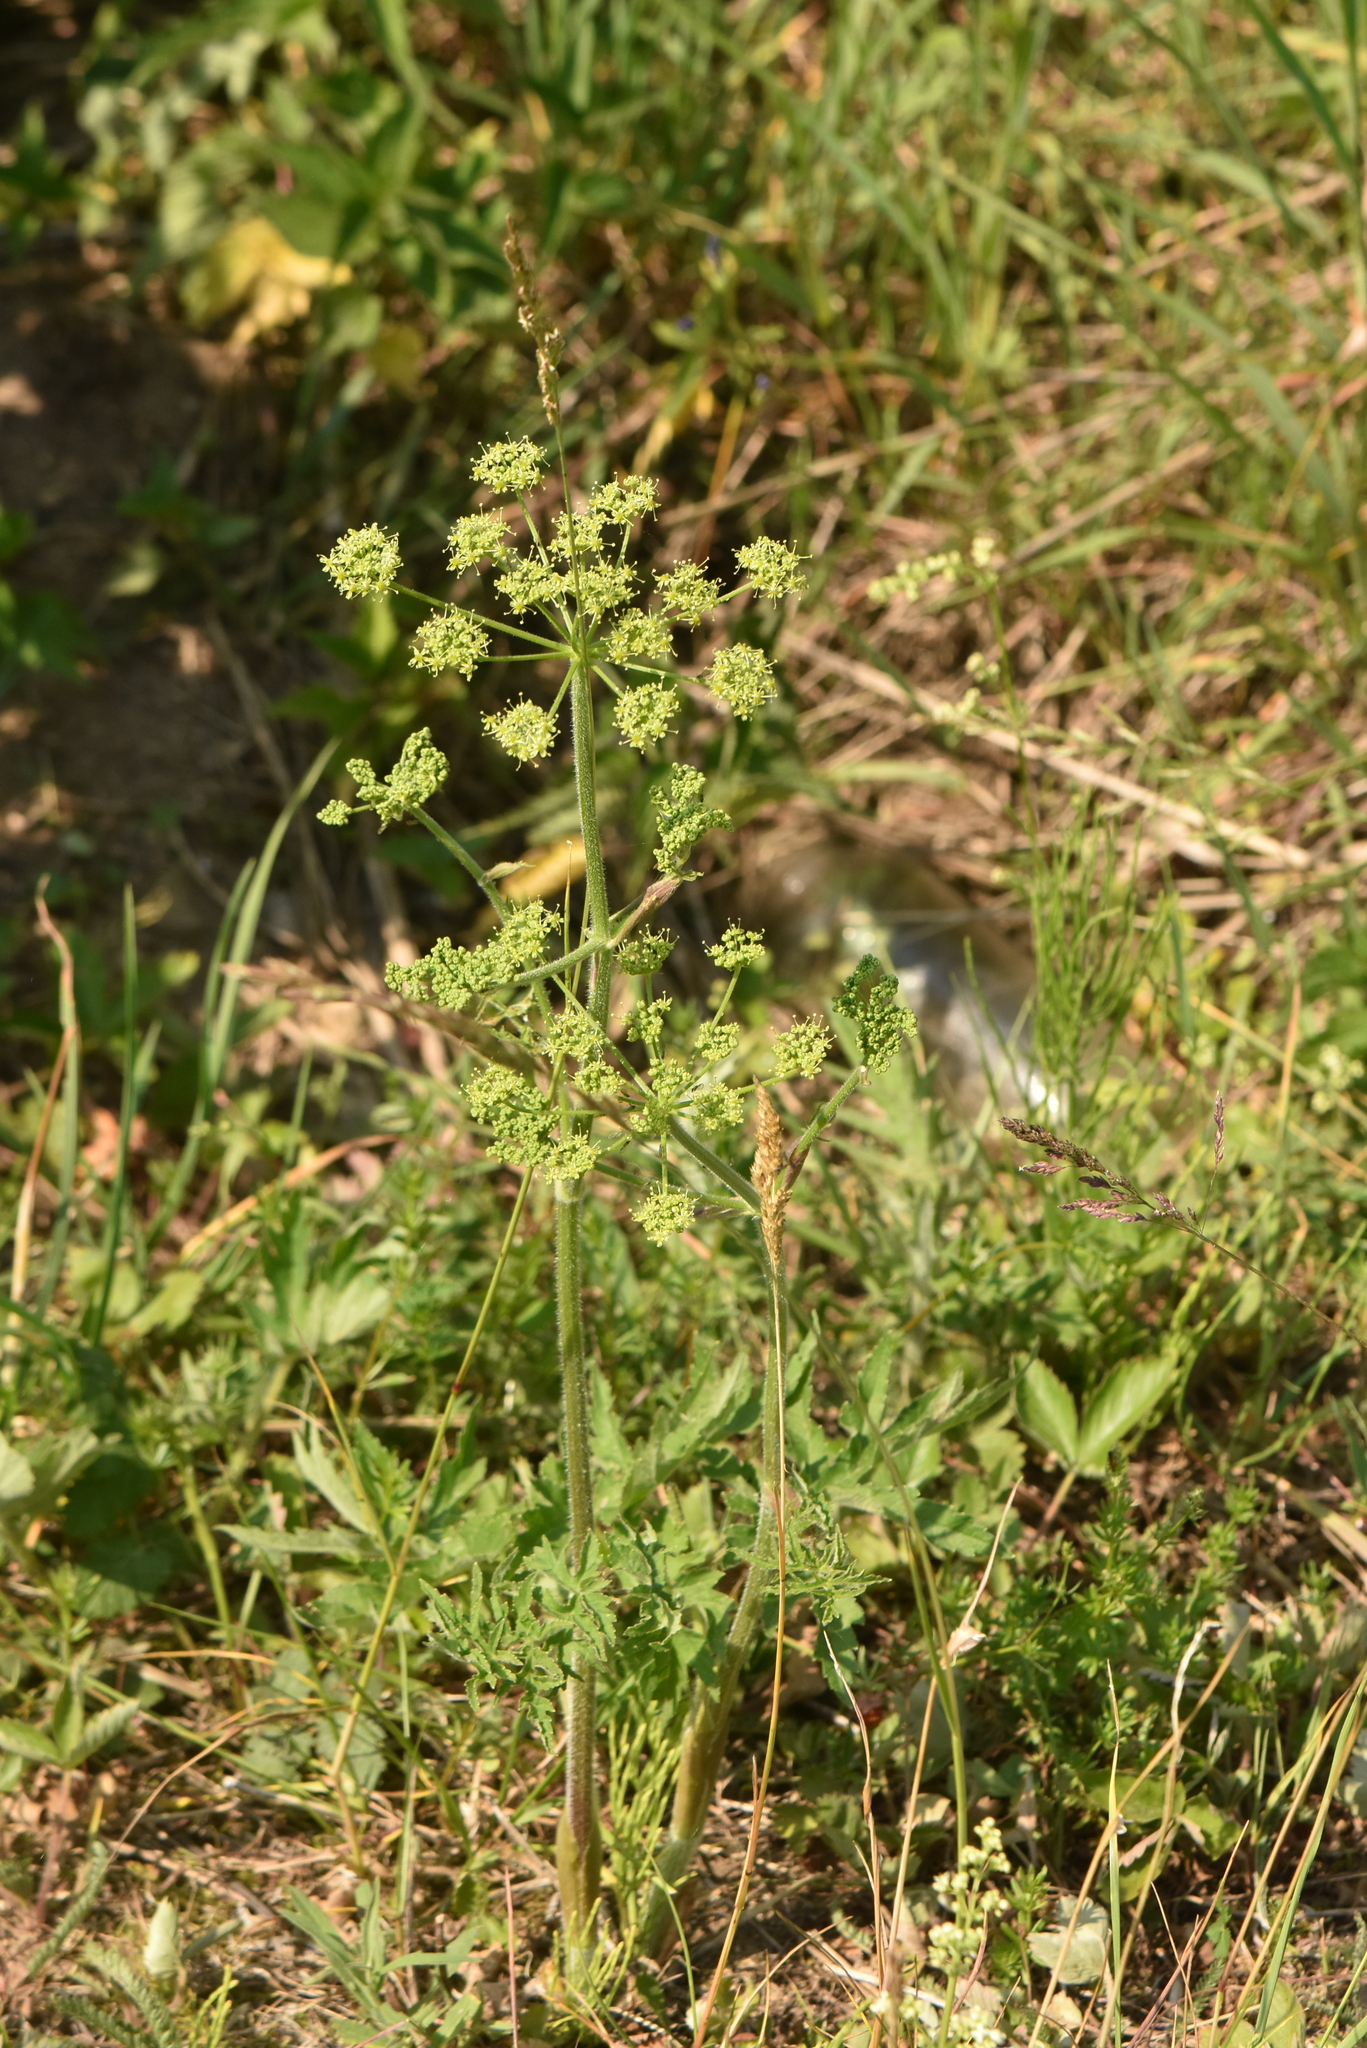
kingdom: Plantae
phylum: Tracheophyta
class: Magnoliopsida
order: Apiales
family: Apiaceae
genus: Heracleum
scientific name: Heracleum sphondylium
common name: Hogweed
